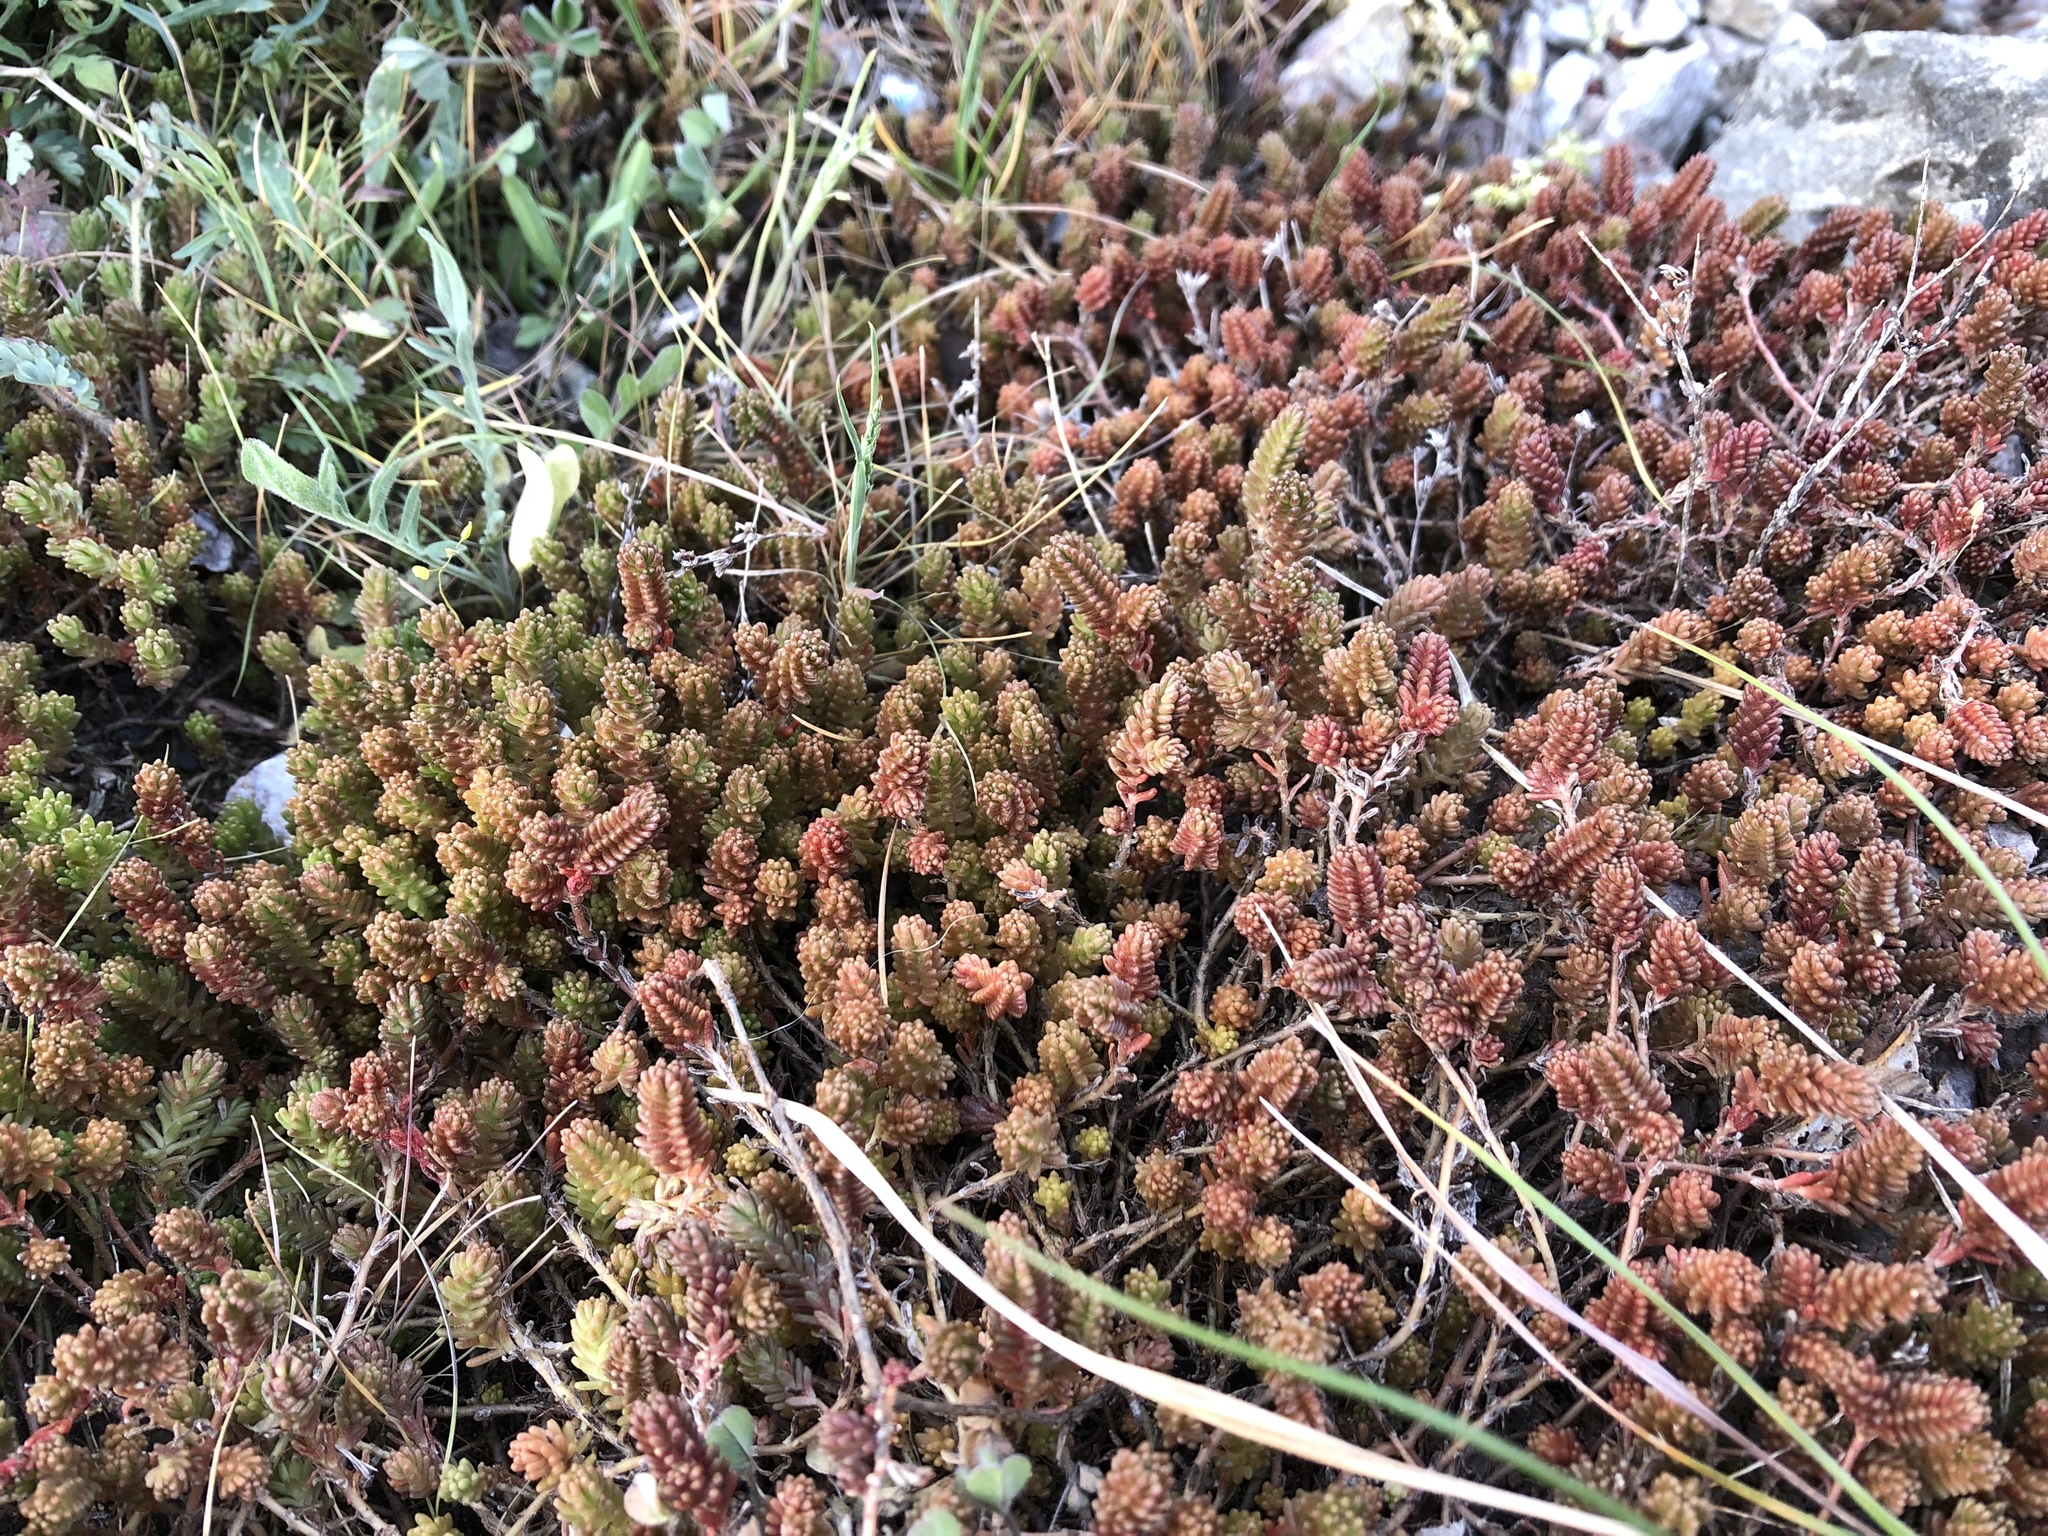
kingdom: Plantae
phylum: Tracheophyta
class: Magnoliopsida
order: Saxifragales
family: Crassulaceae
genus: Sedum
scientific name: Sedum sexangulare
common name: Tasteless stonecrop
